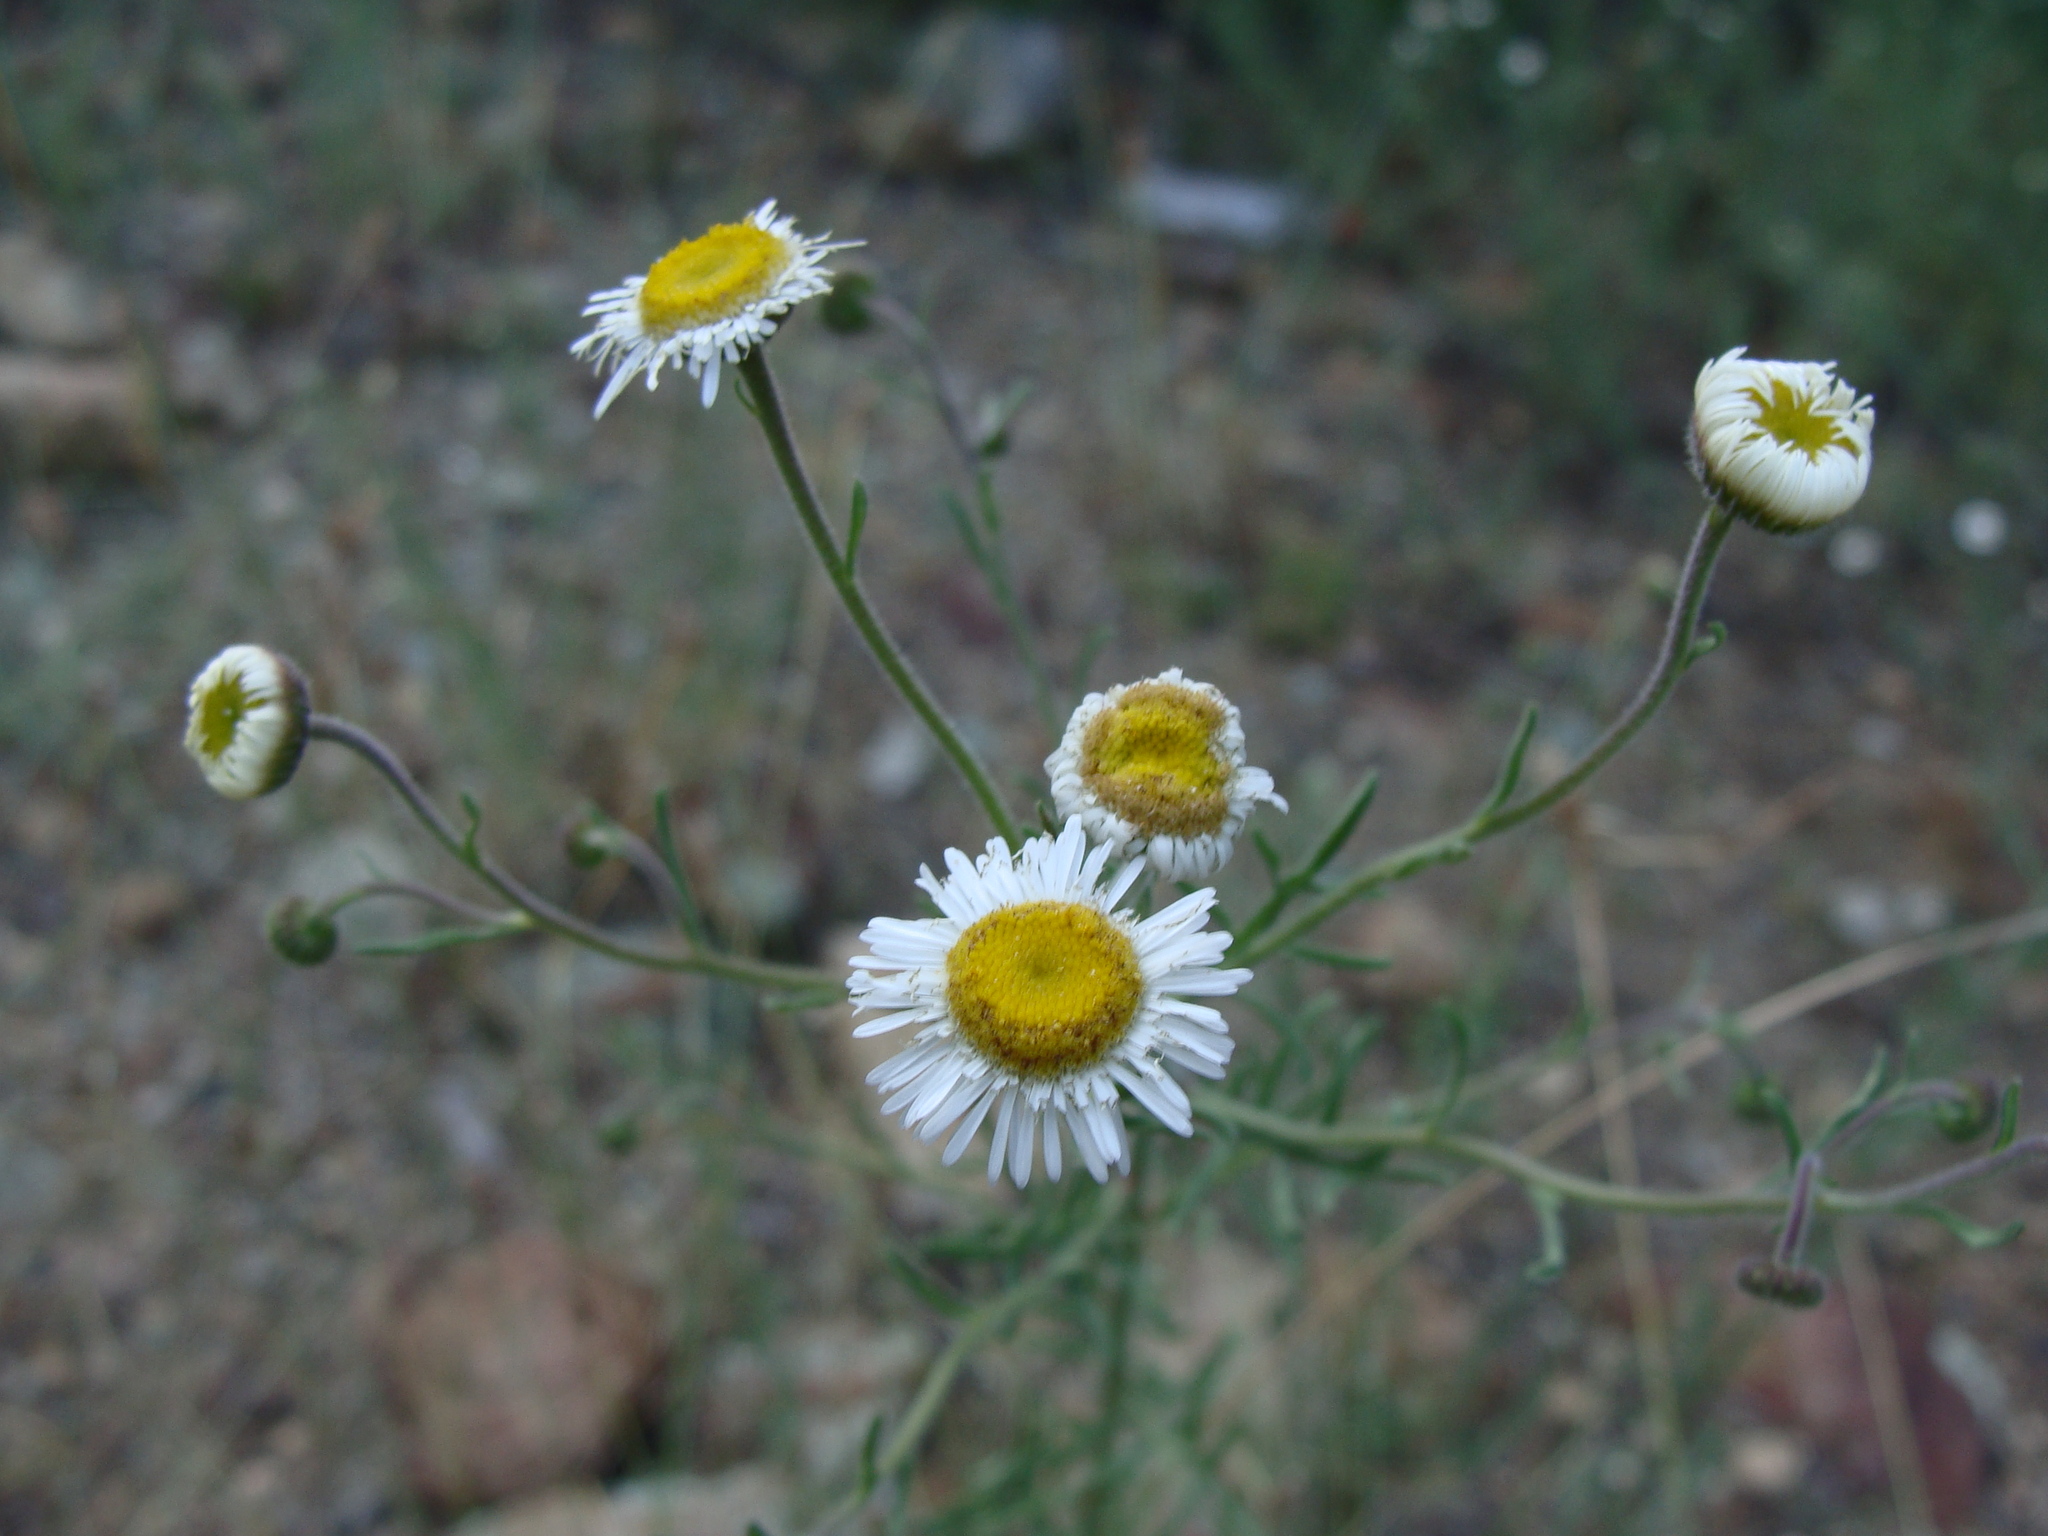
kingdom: Plantae
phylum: Tracheophyta
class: Magnoliopsida
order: Asterales
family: Asteraceae
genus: Erigeron
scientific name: Erigeron neomexicanus
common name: New mexico fleabane
